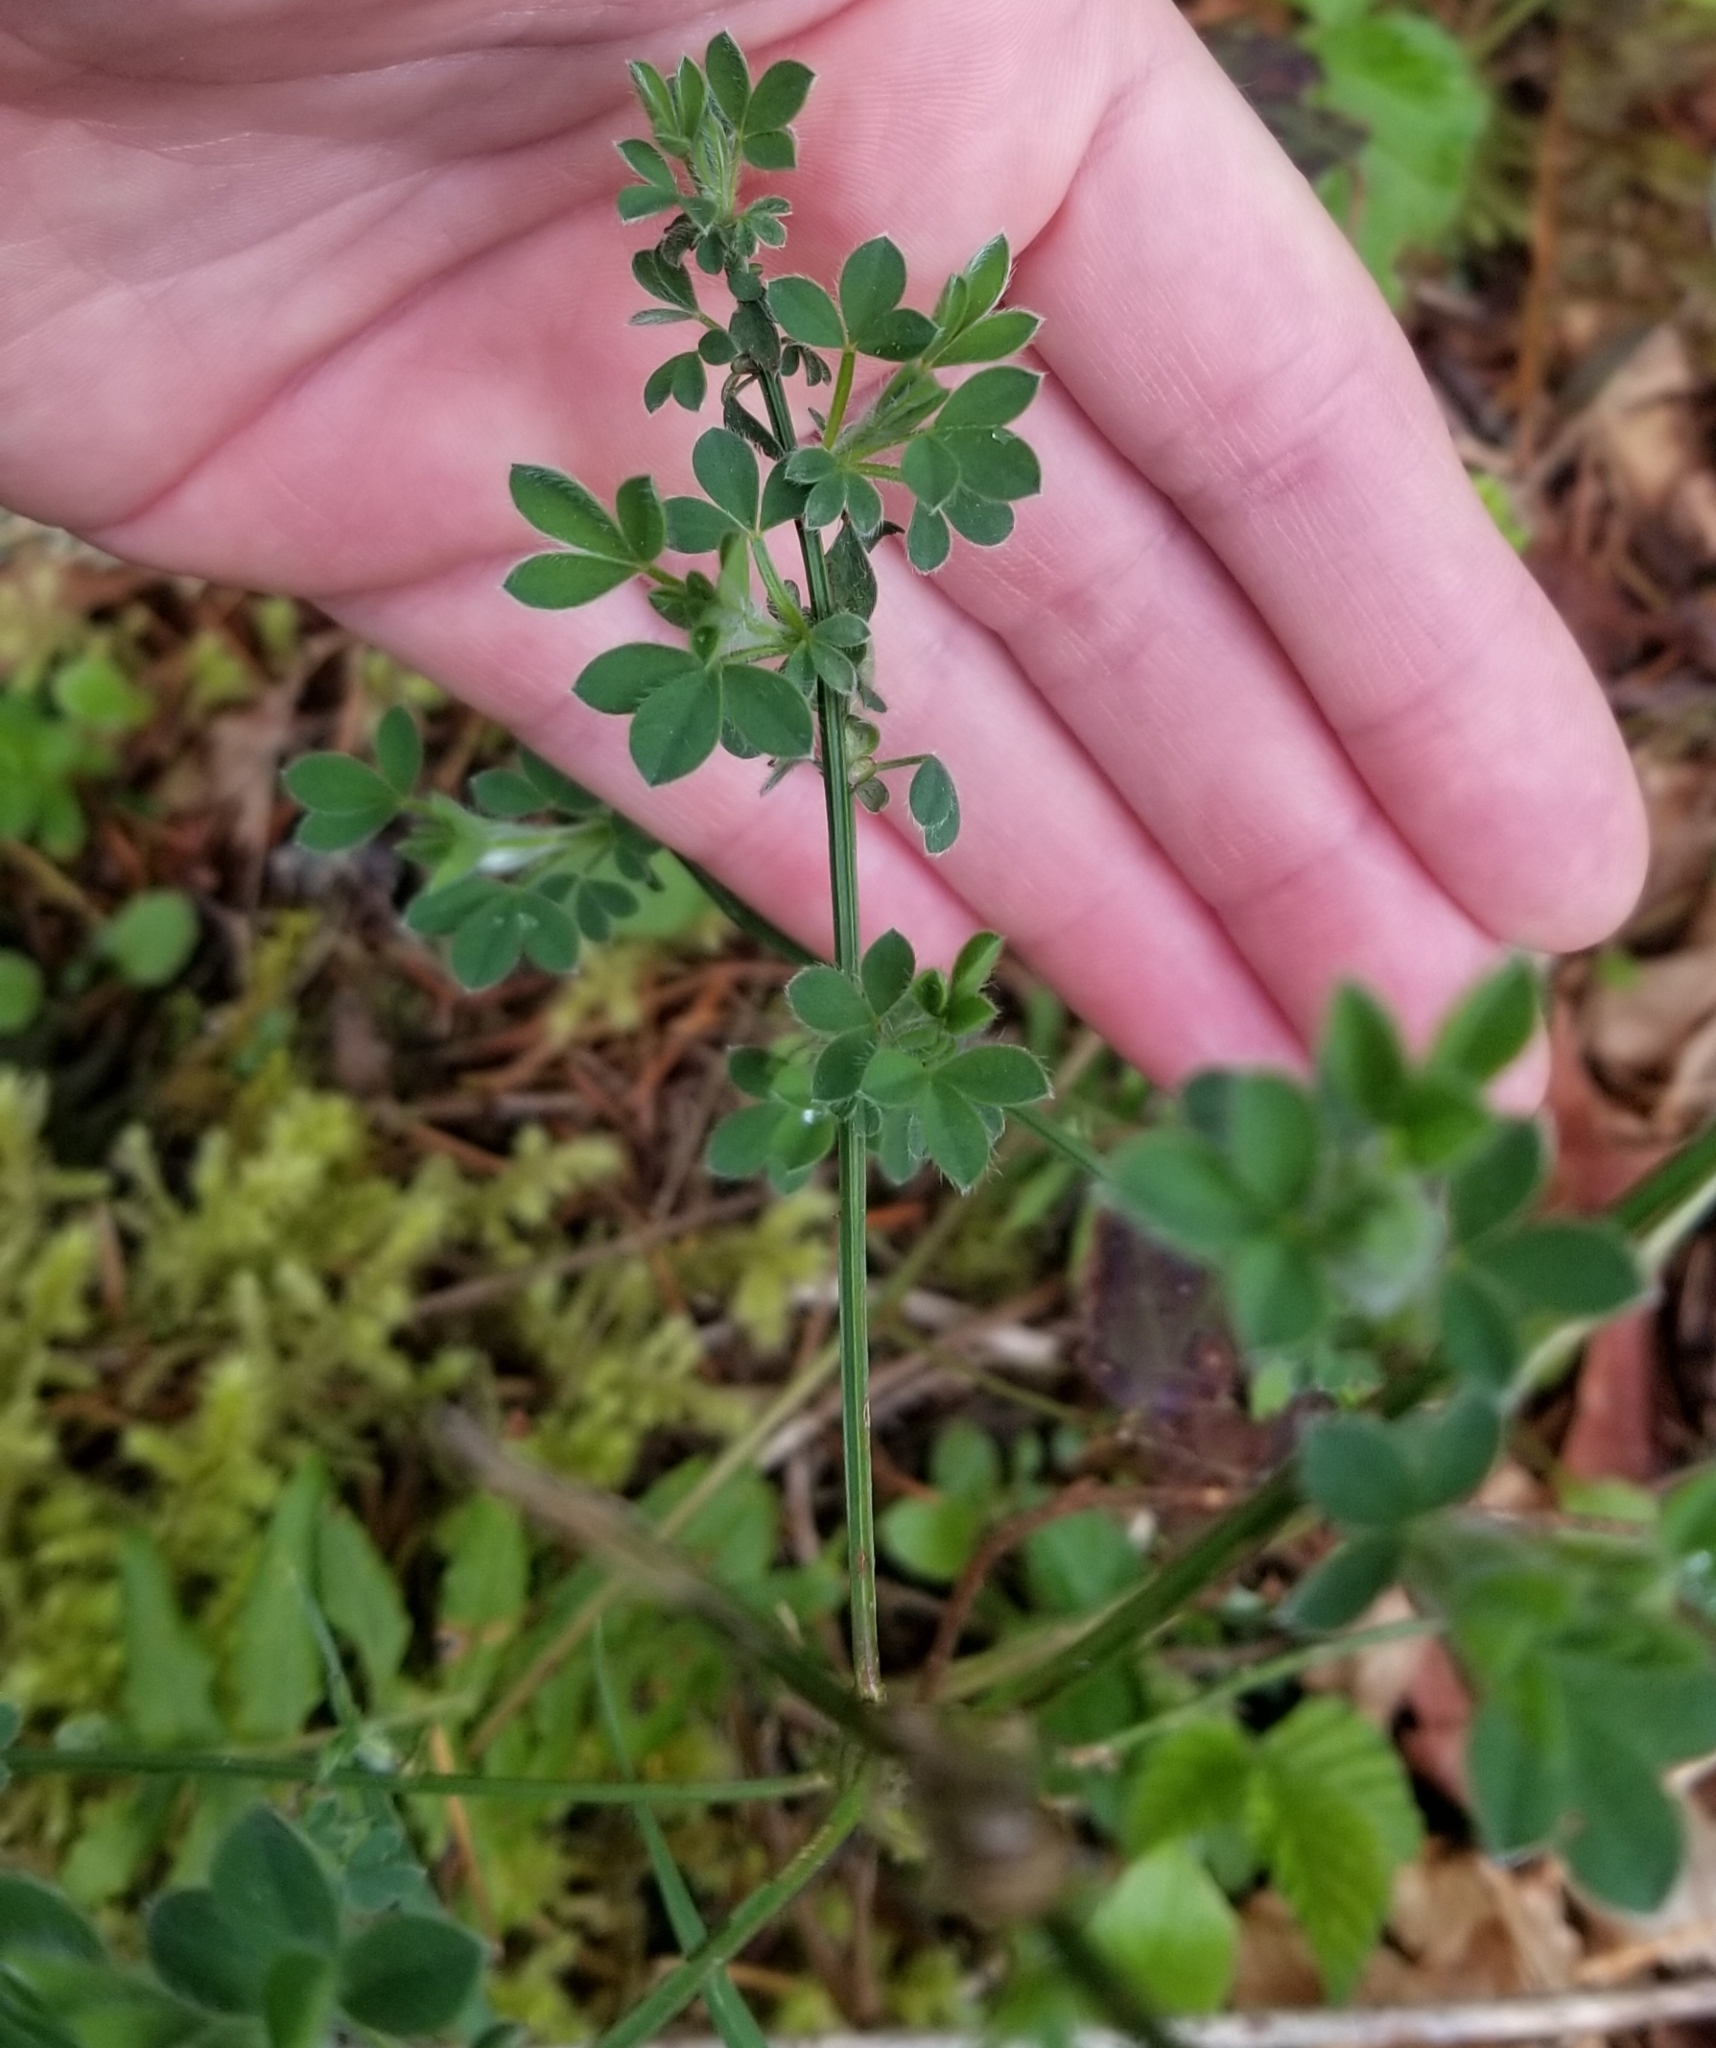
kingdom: Plantae
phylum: Tracheophyta
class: Magnoliopsida
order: Fabales
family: Fabaceae
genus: Cytisus
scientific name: Cytisus scoparius
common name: Scotch broom
